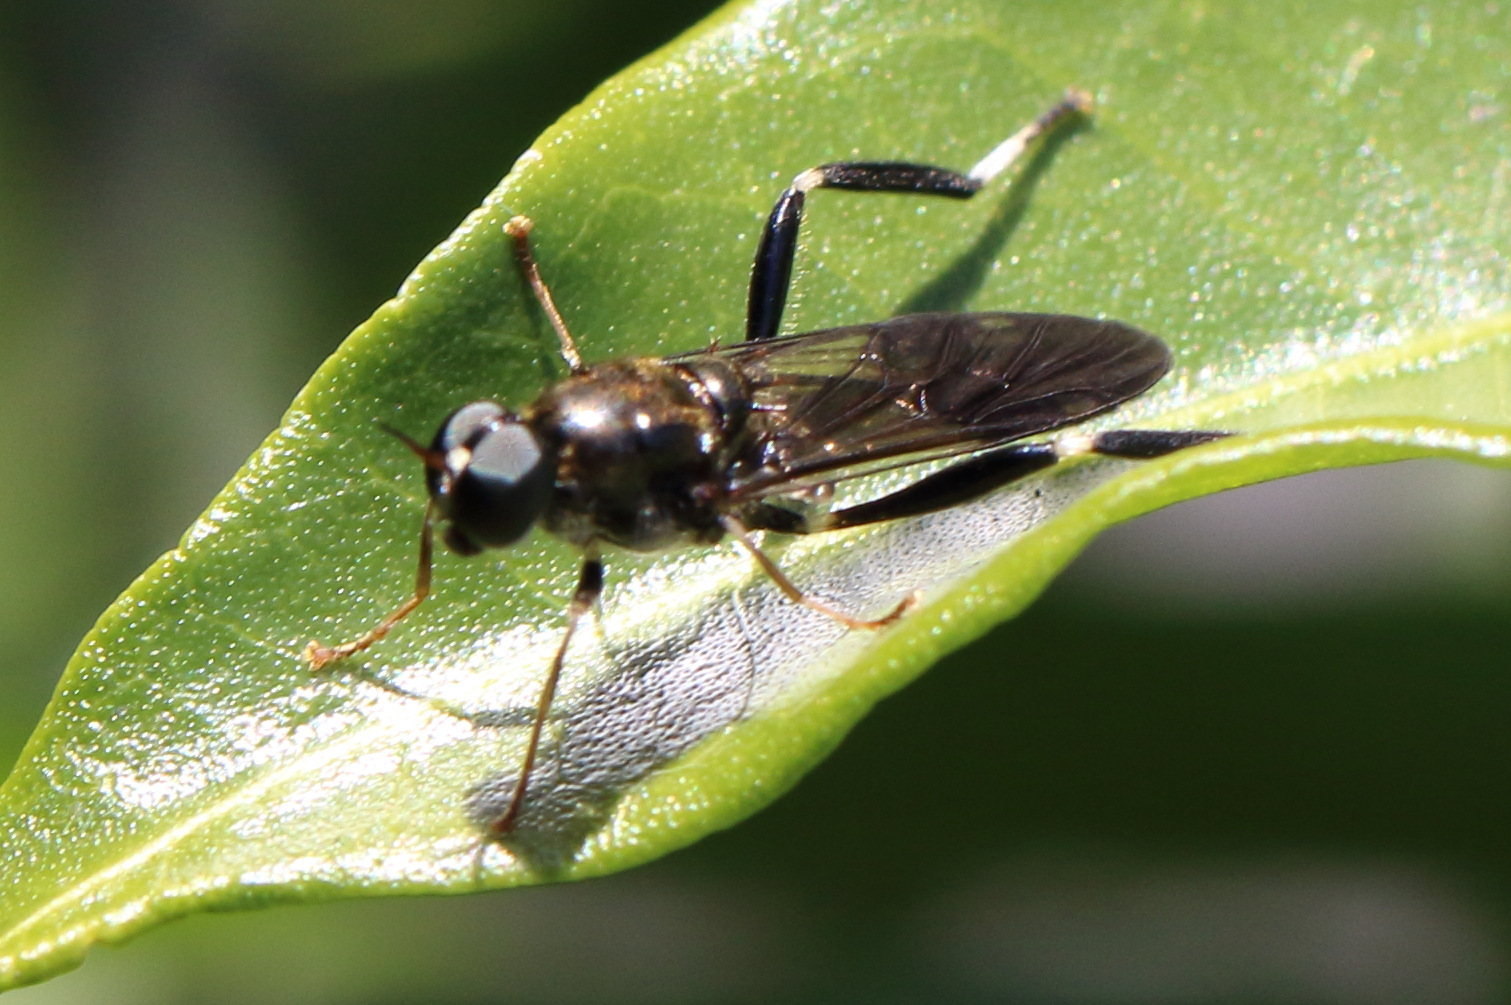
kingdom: Animalia
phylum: Arthropoda
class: Insecta
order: Diptera
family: Stratiomyidae
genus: Exaireta
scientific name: Exaireta spinigera
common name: Blue soldier fly
